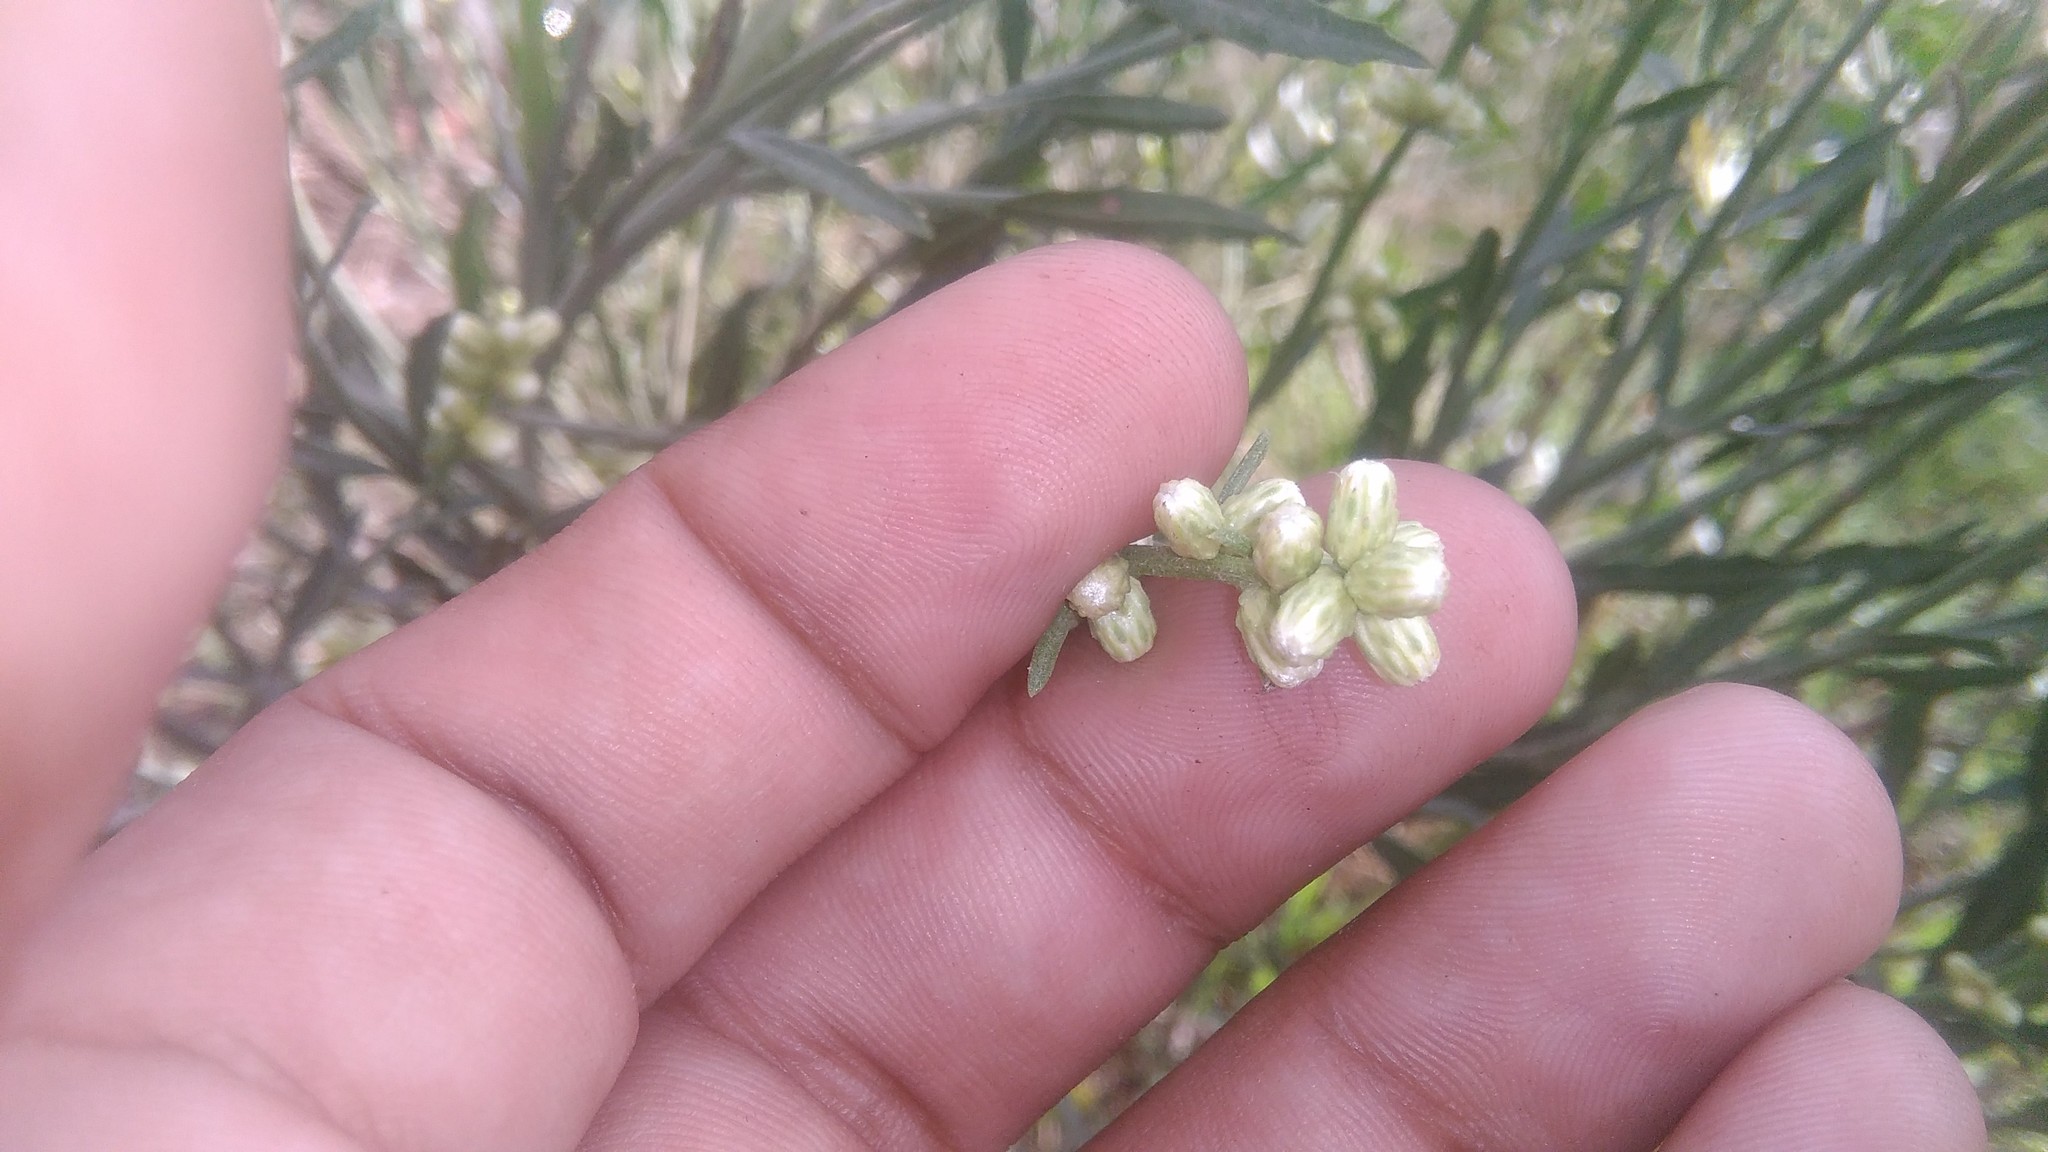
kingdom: Plantae
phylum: Tracheophyta
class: Magnoliopsida
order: Asterales
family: Asteraceae
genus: Baccharis
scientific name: Baccharis spicata
